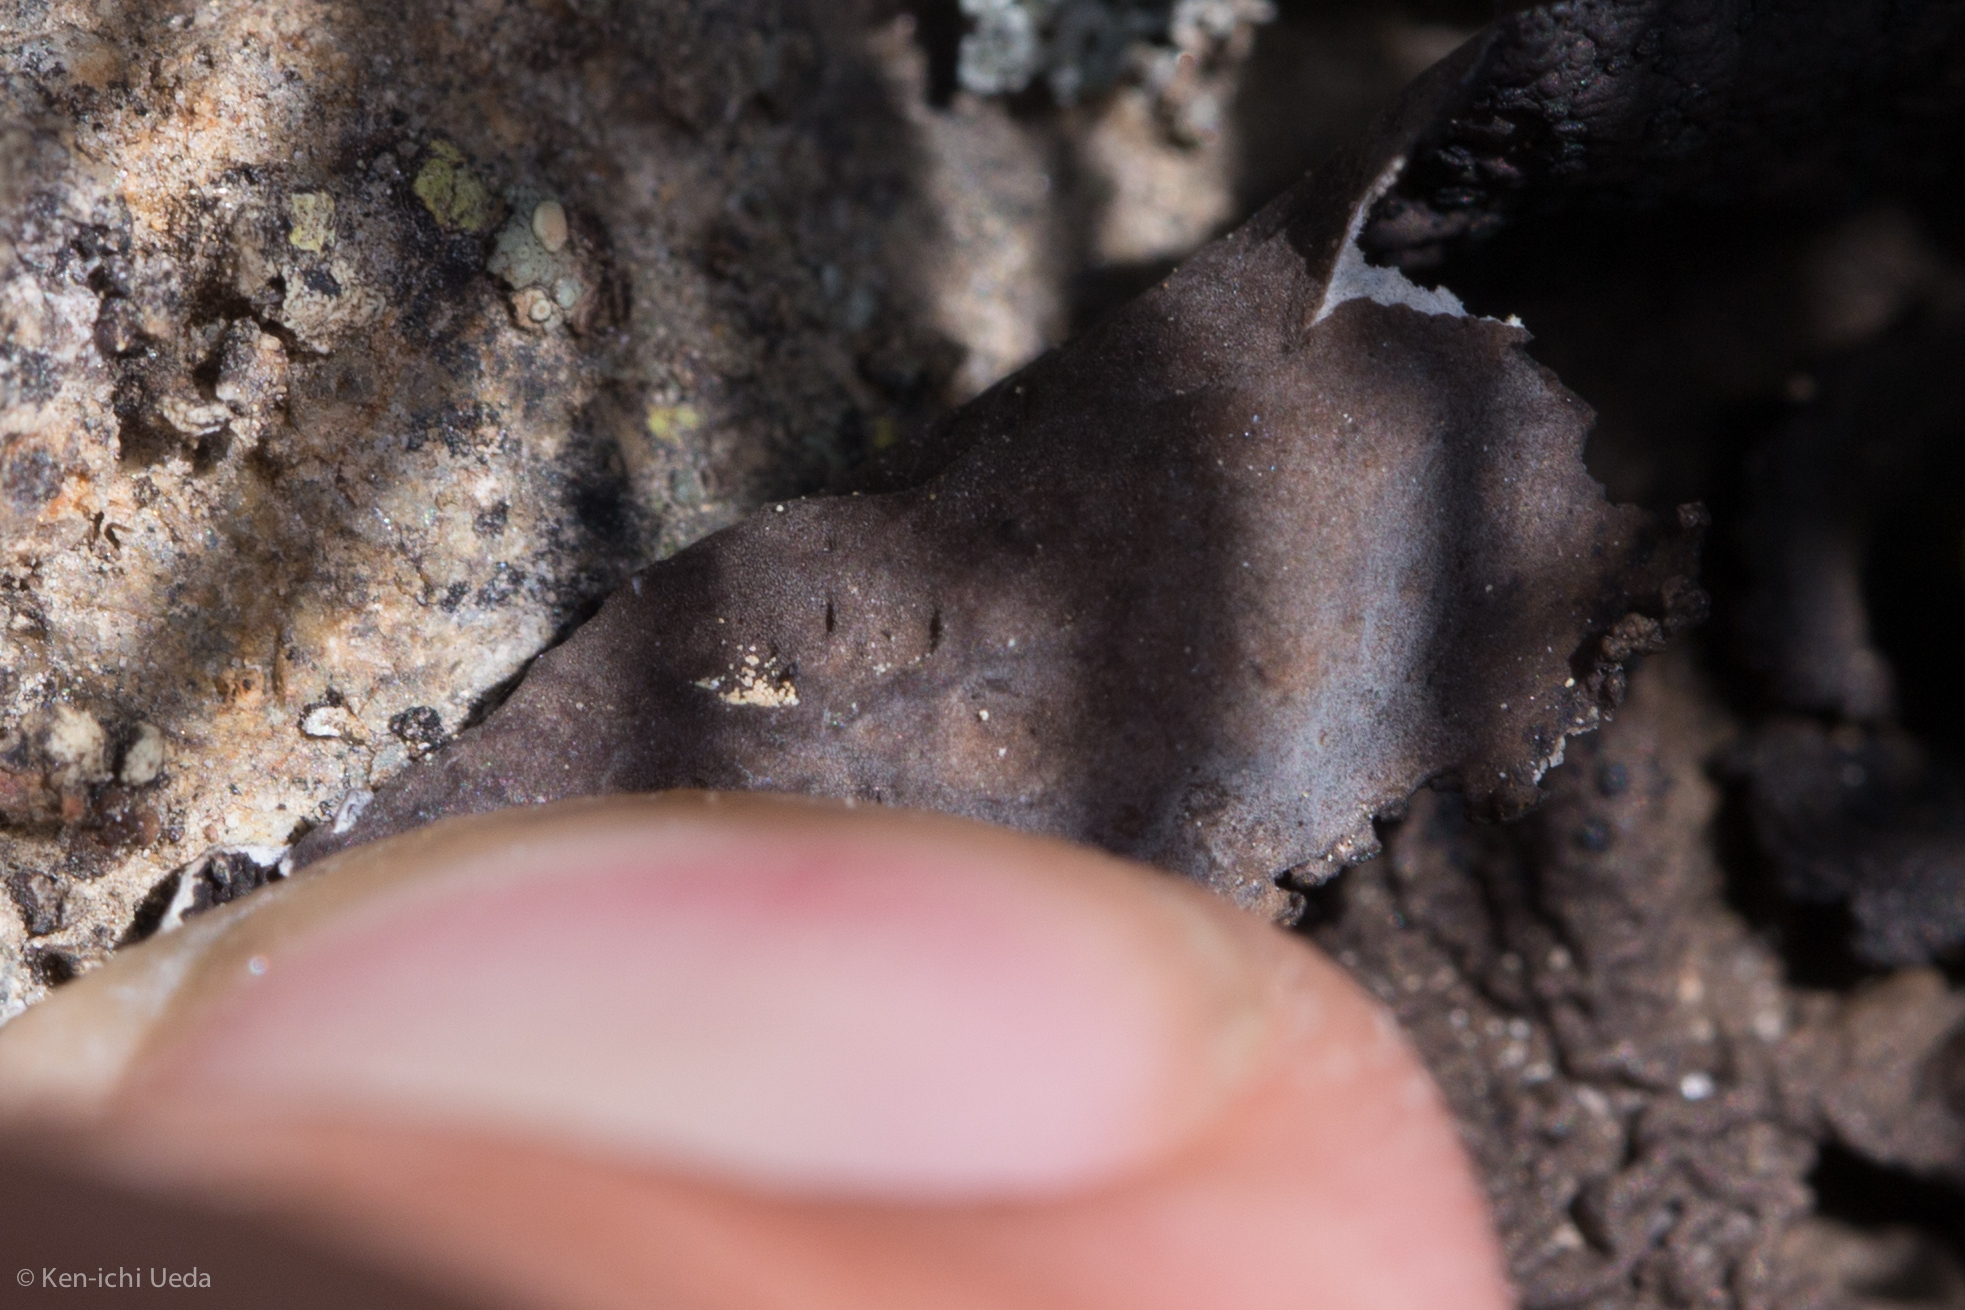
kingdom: Fungi
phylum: Ascomycota
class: Lecanoromycetes
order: Umbilicariales
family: Umbilicariaceae
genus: Umbilicaria
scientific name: Umbilicaria hyperborea
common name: Blistered rock tripe
